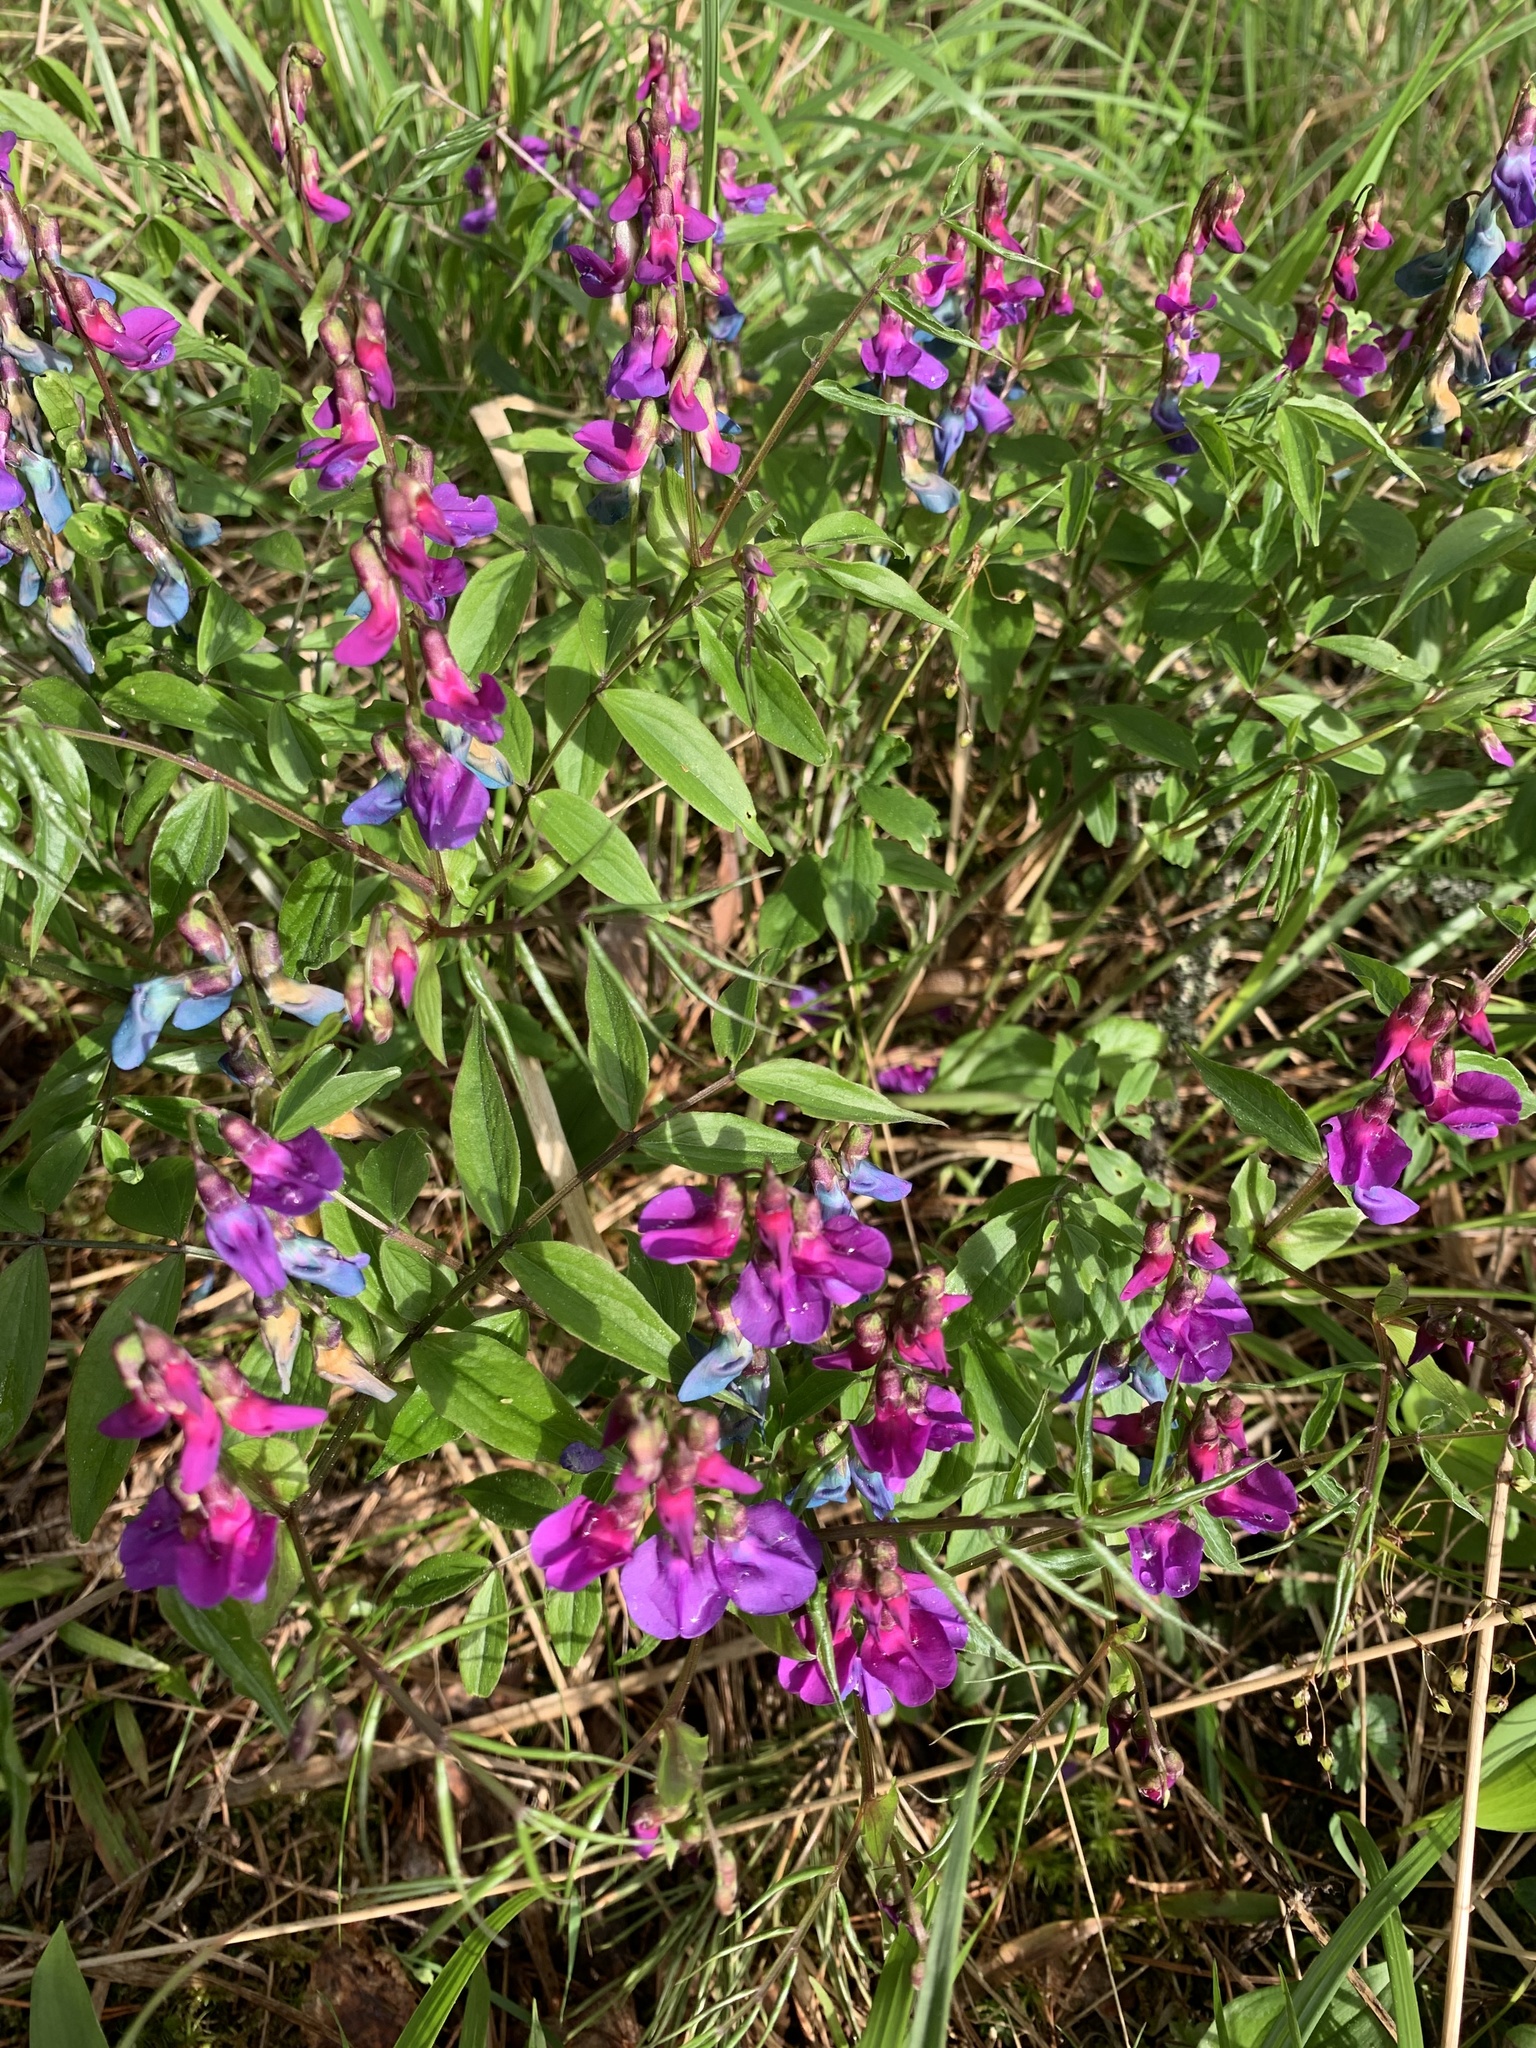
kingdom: Plantae
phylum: Tracheophyta
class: Magnoliopsida
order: Fabales
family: Fabaceae
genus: Lathyrus
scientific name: Lathyrus vernus
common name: Spring pea
